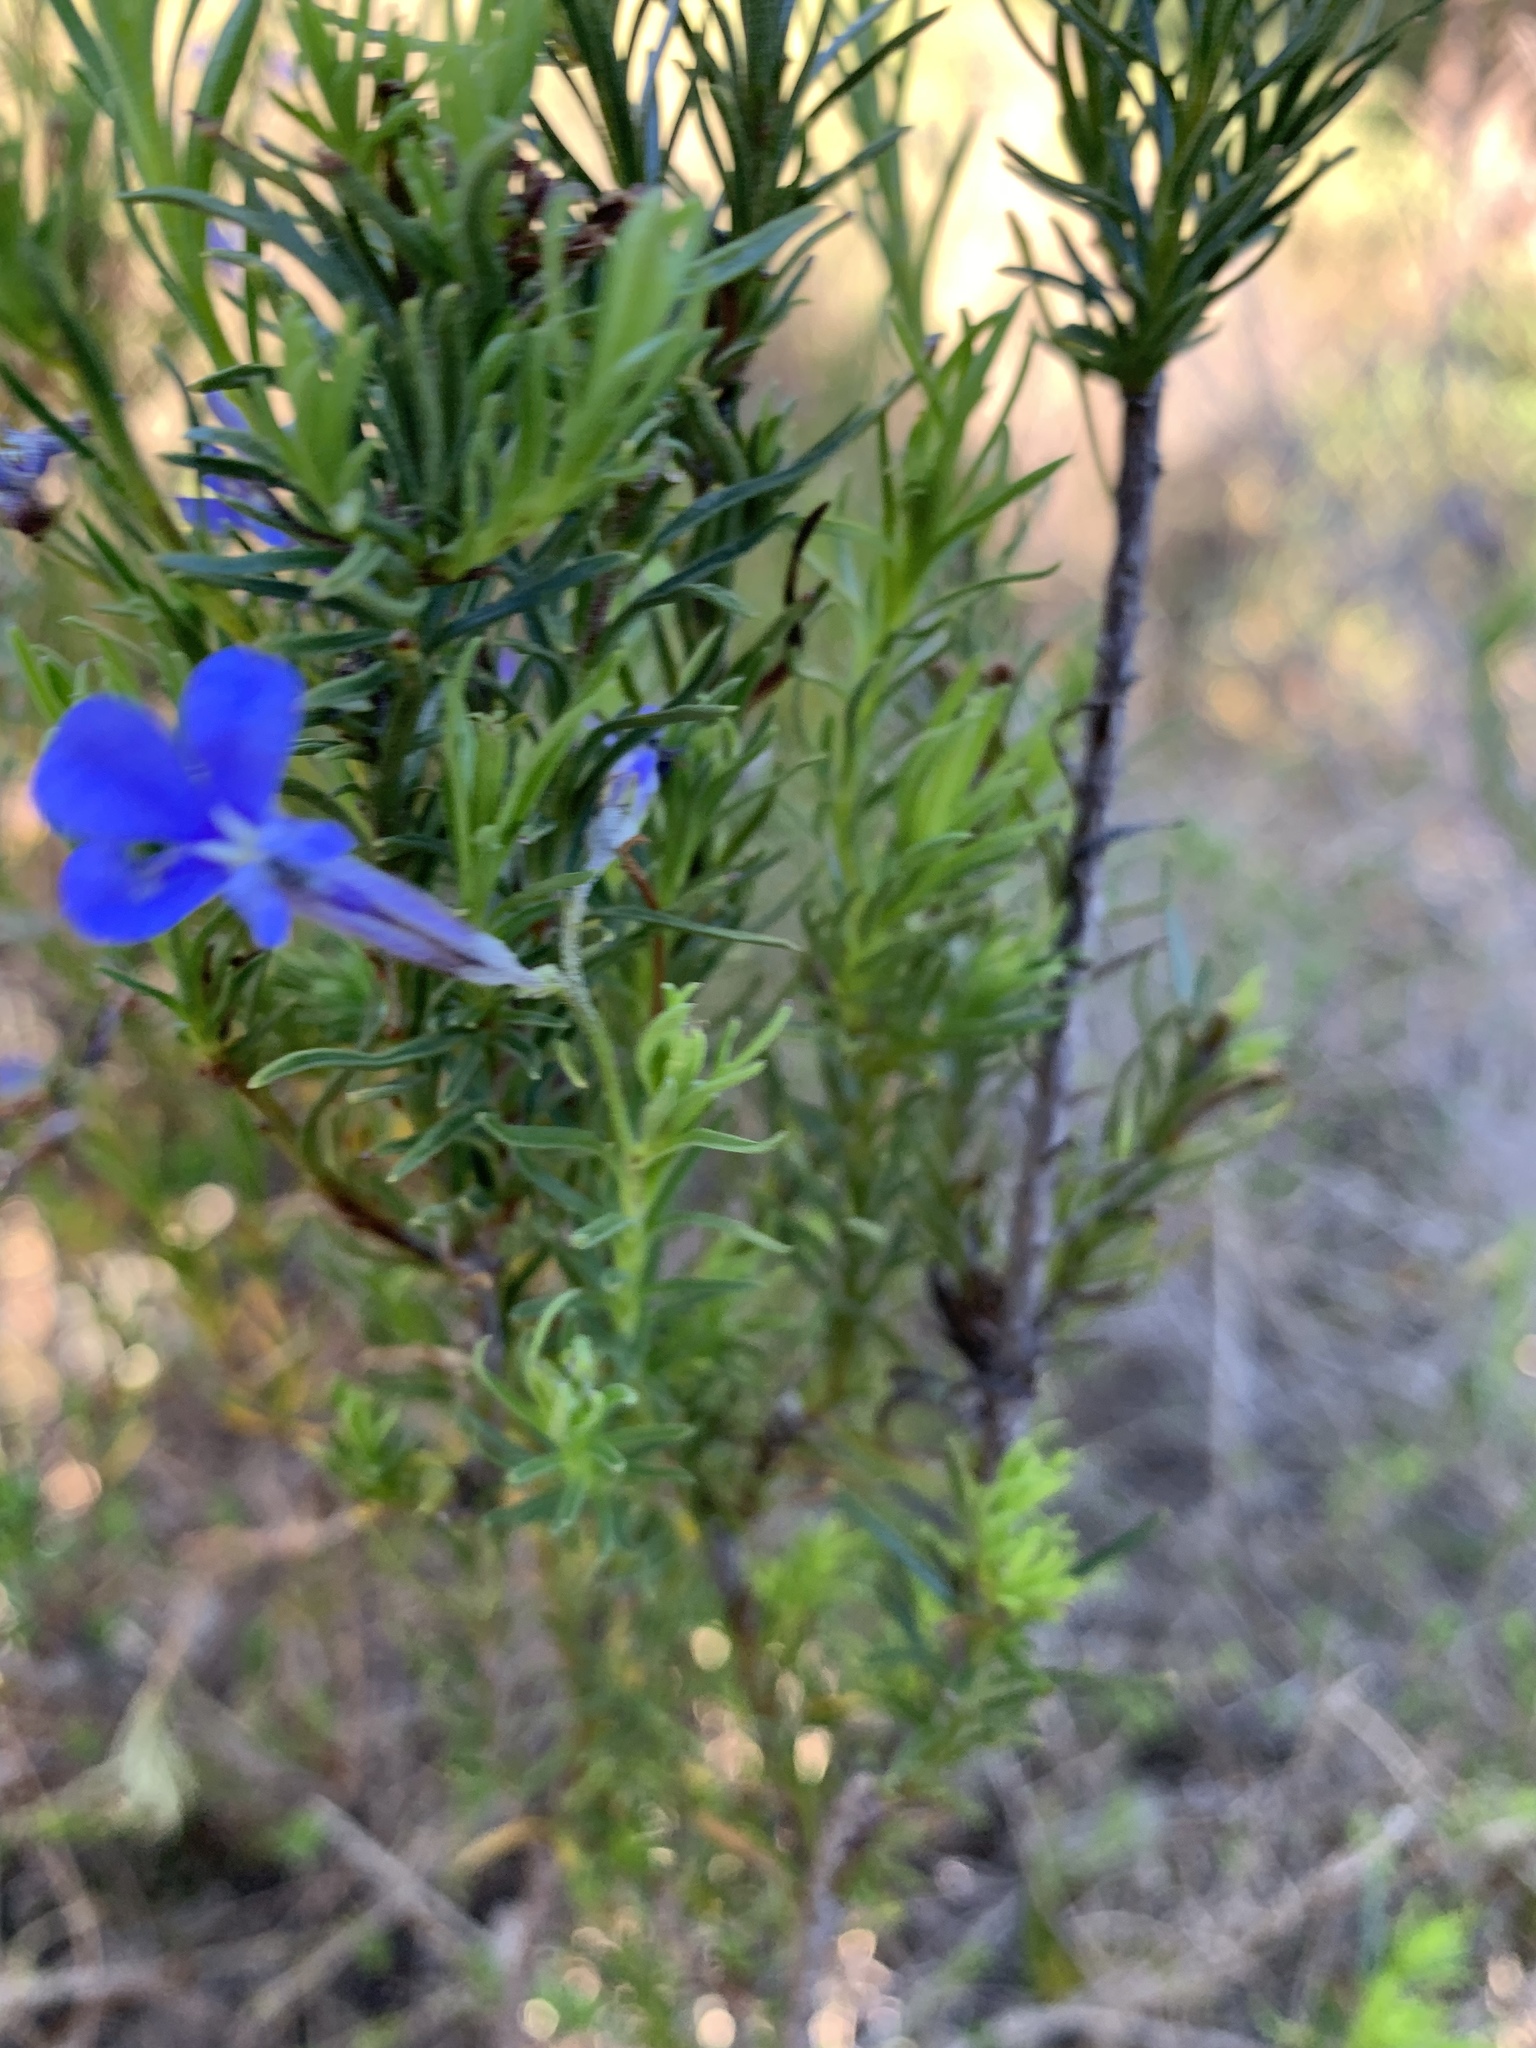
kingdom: Plantae
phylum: Tracheophyta
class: Magnoliopsida
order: Asterales
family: Campanulaceae
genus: Lobelia
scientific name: Lobelia pinifolia
